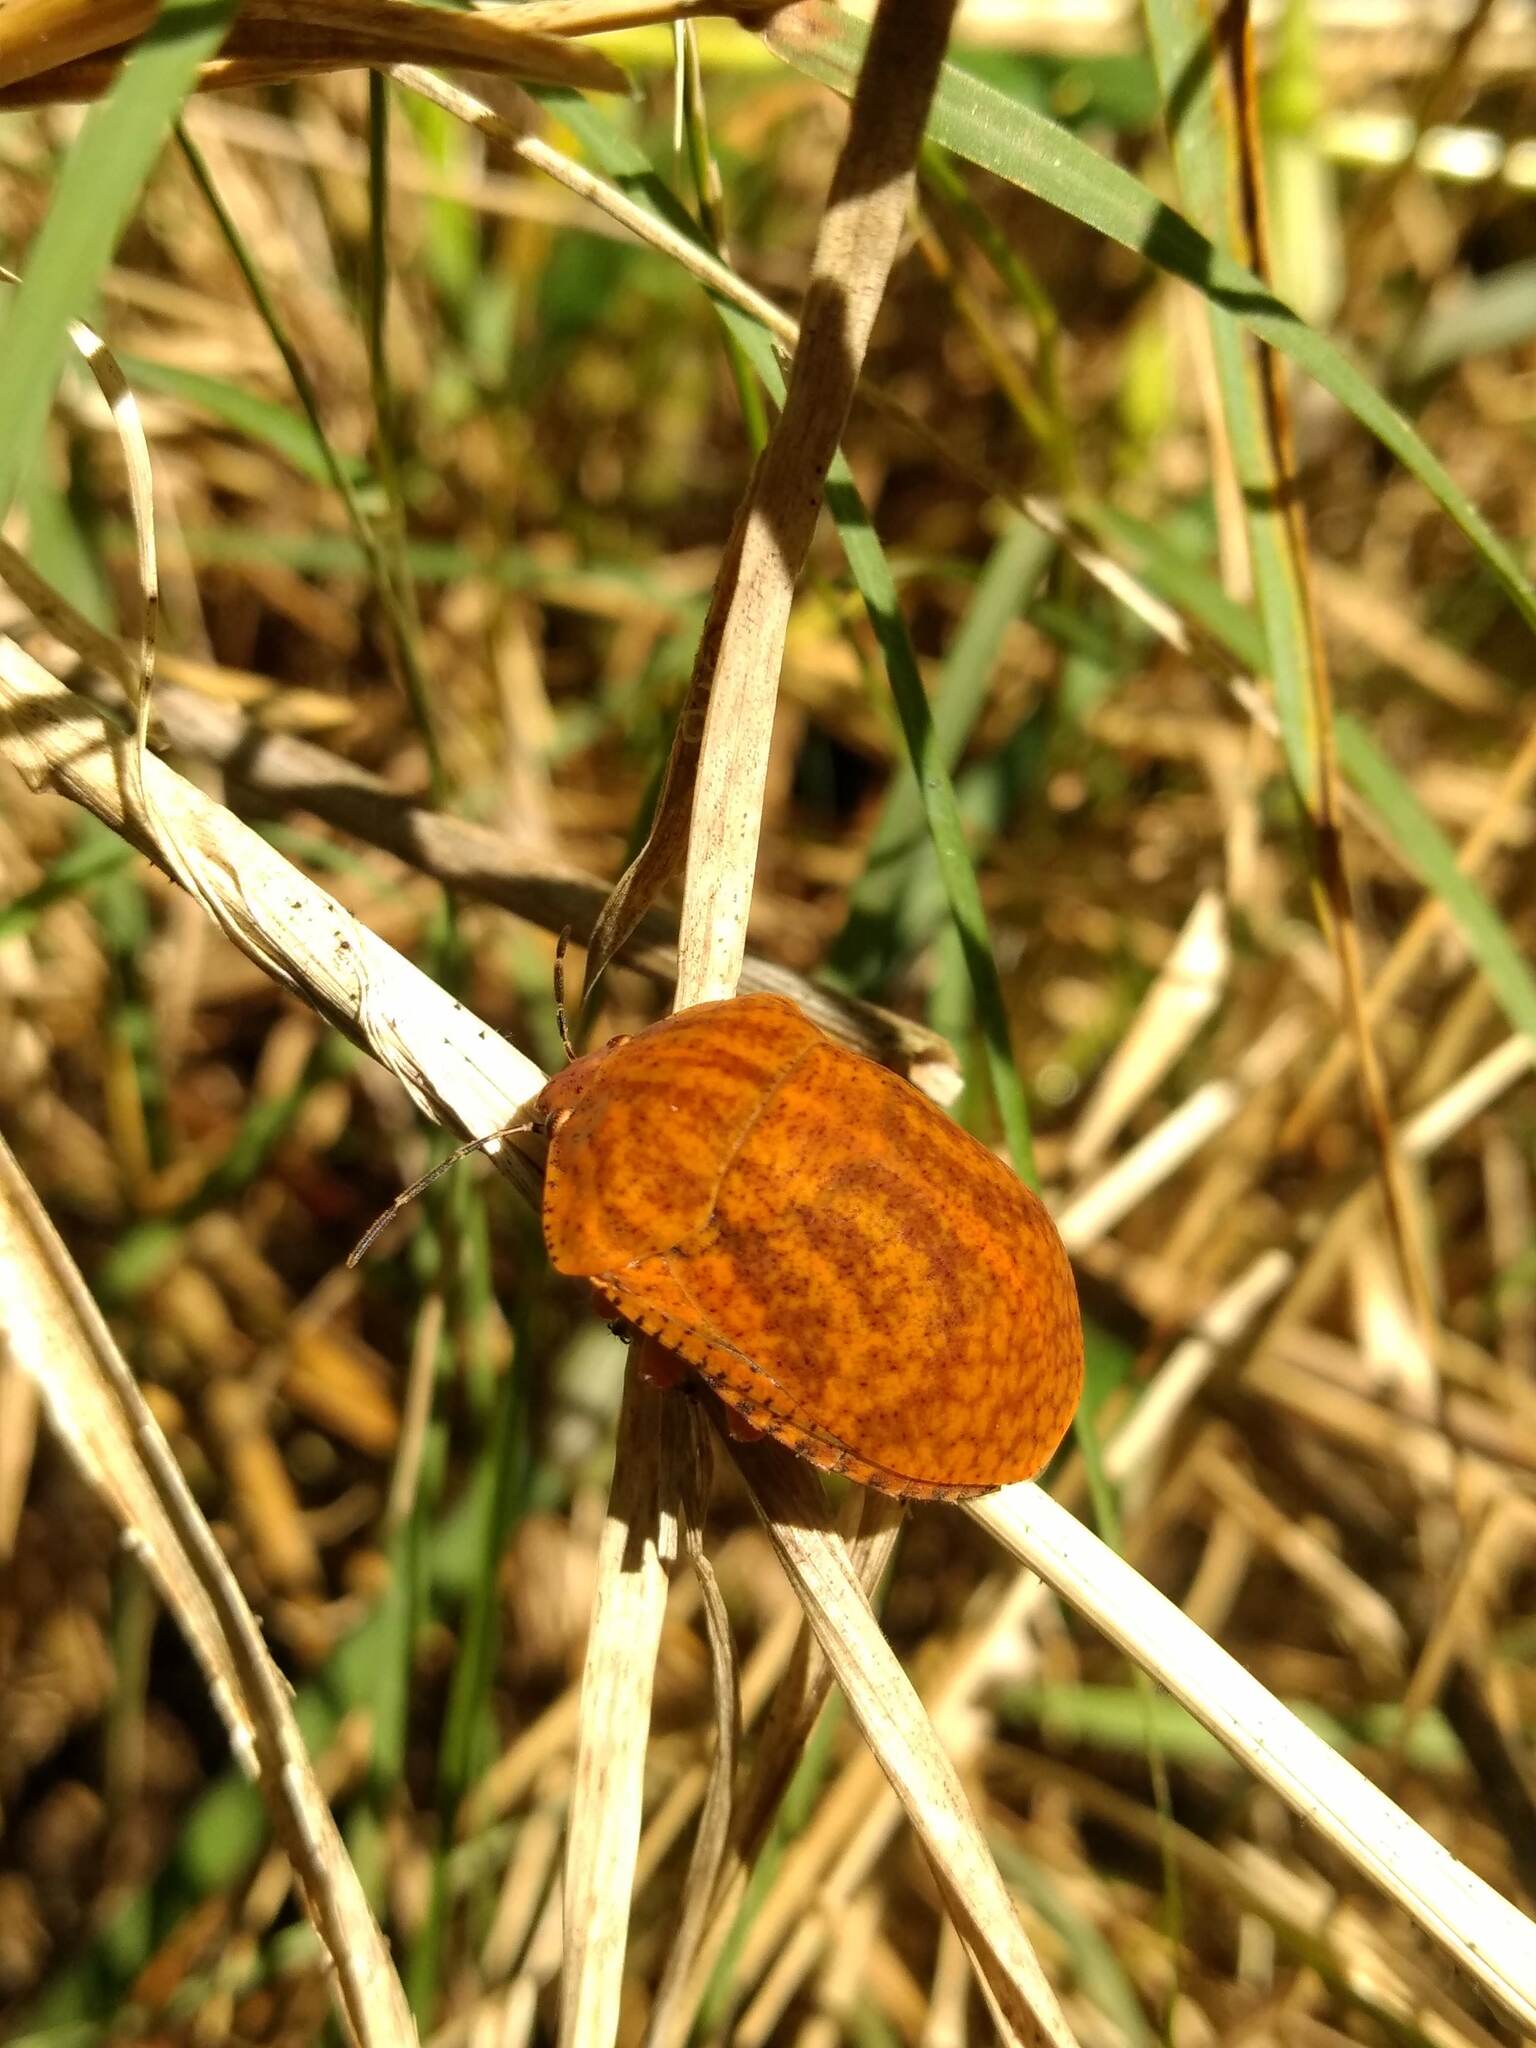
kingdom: Animalia
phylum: Arthropoda
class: Insecta
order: Hemiptera
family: Scutelleridae
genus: Tetyra
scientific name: Tetyra
